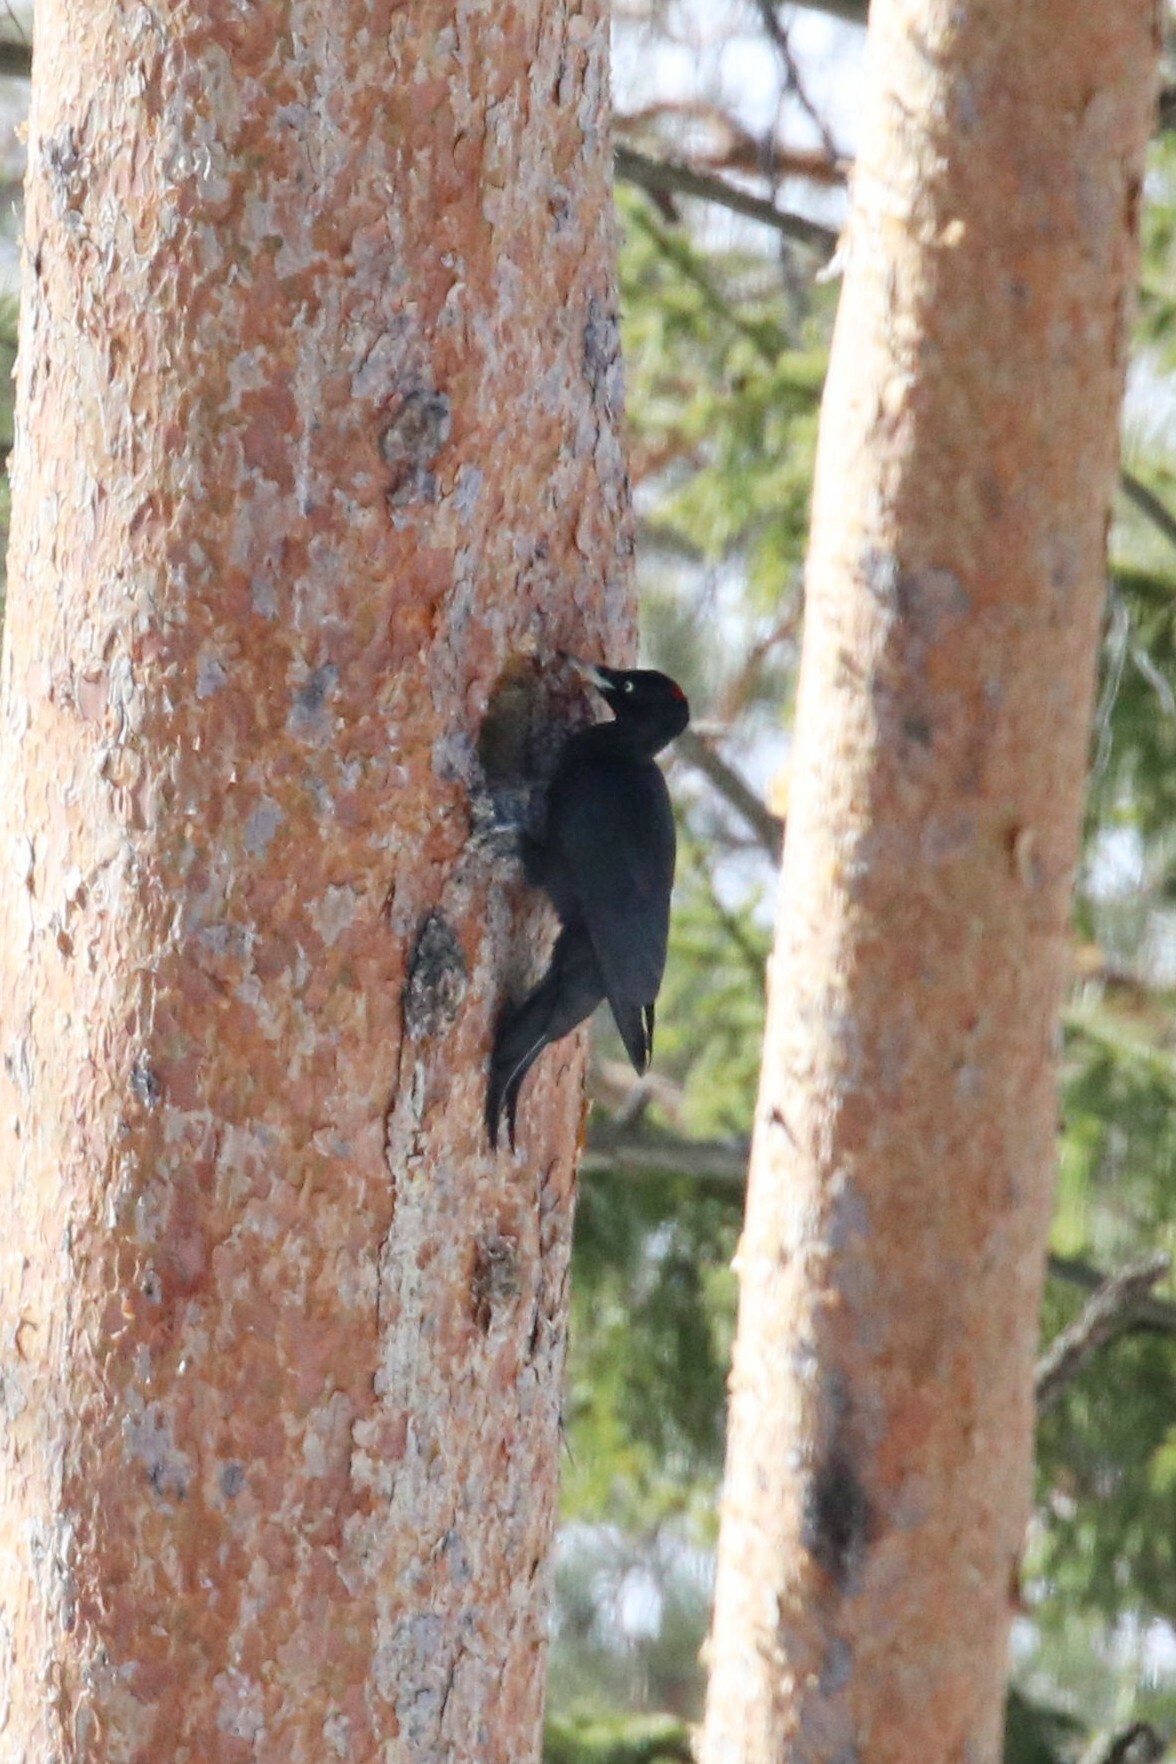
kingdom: Animalia
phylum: Chordata
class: Aves
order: Piciformes
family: Picidae
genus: Dryocopus
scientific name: Dryocopus martius
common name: Black woodpecker
